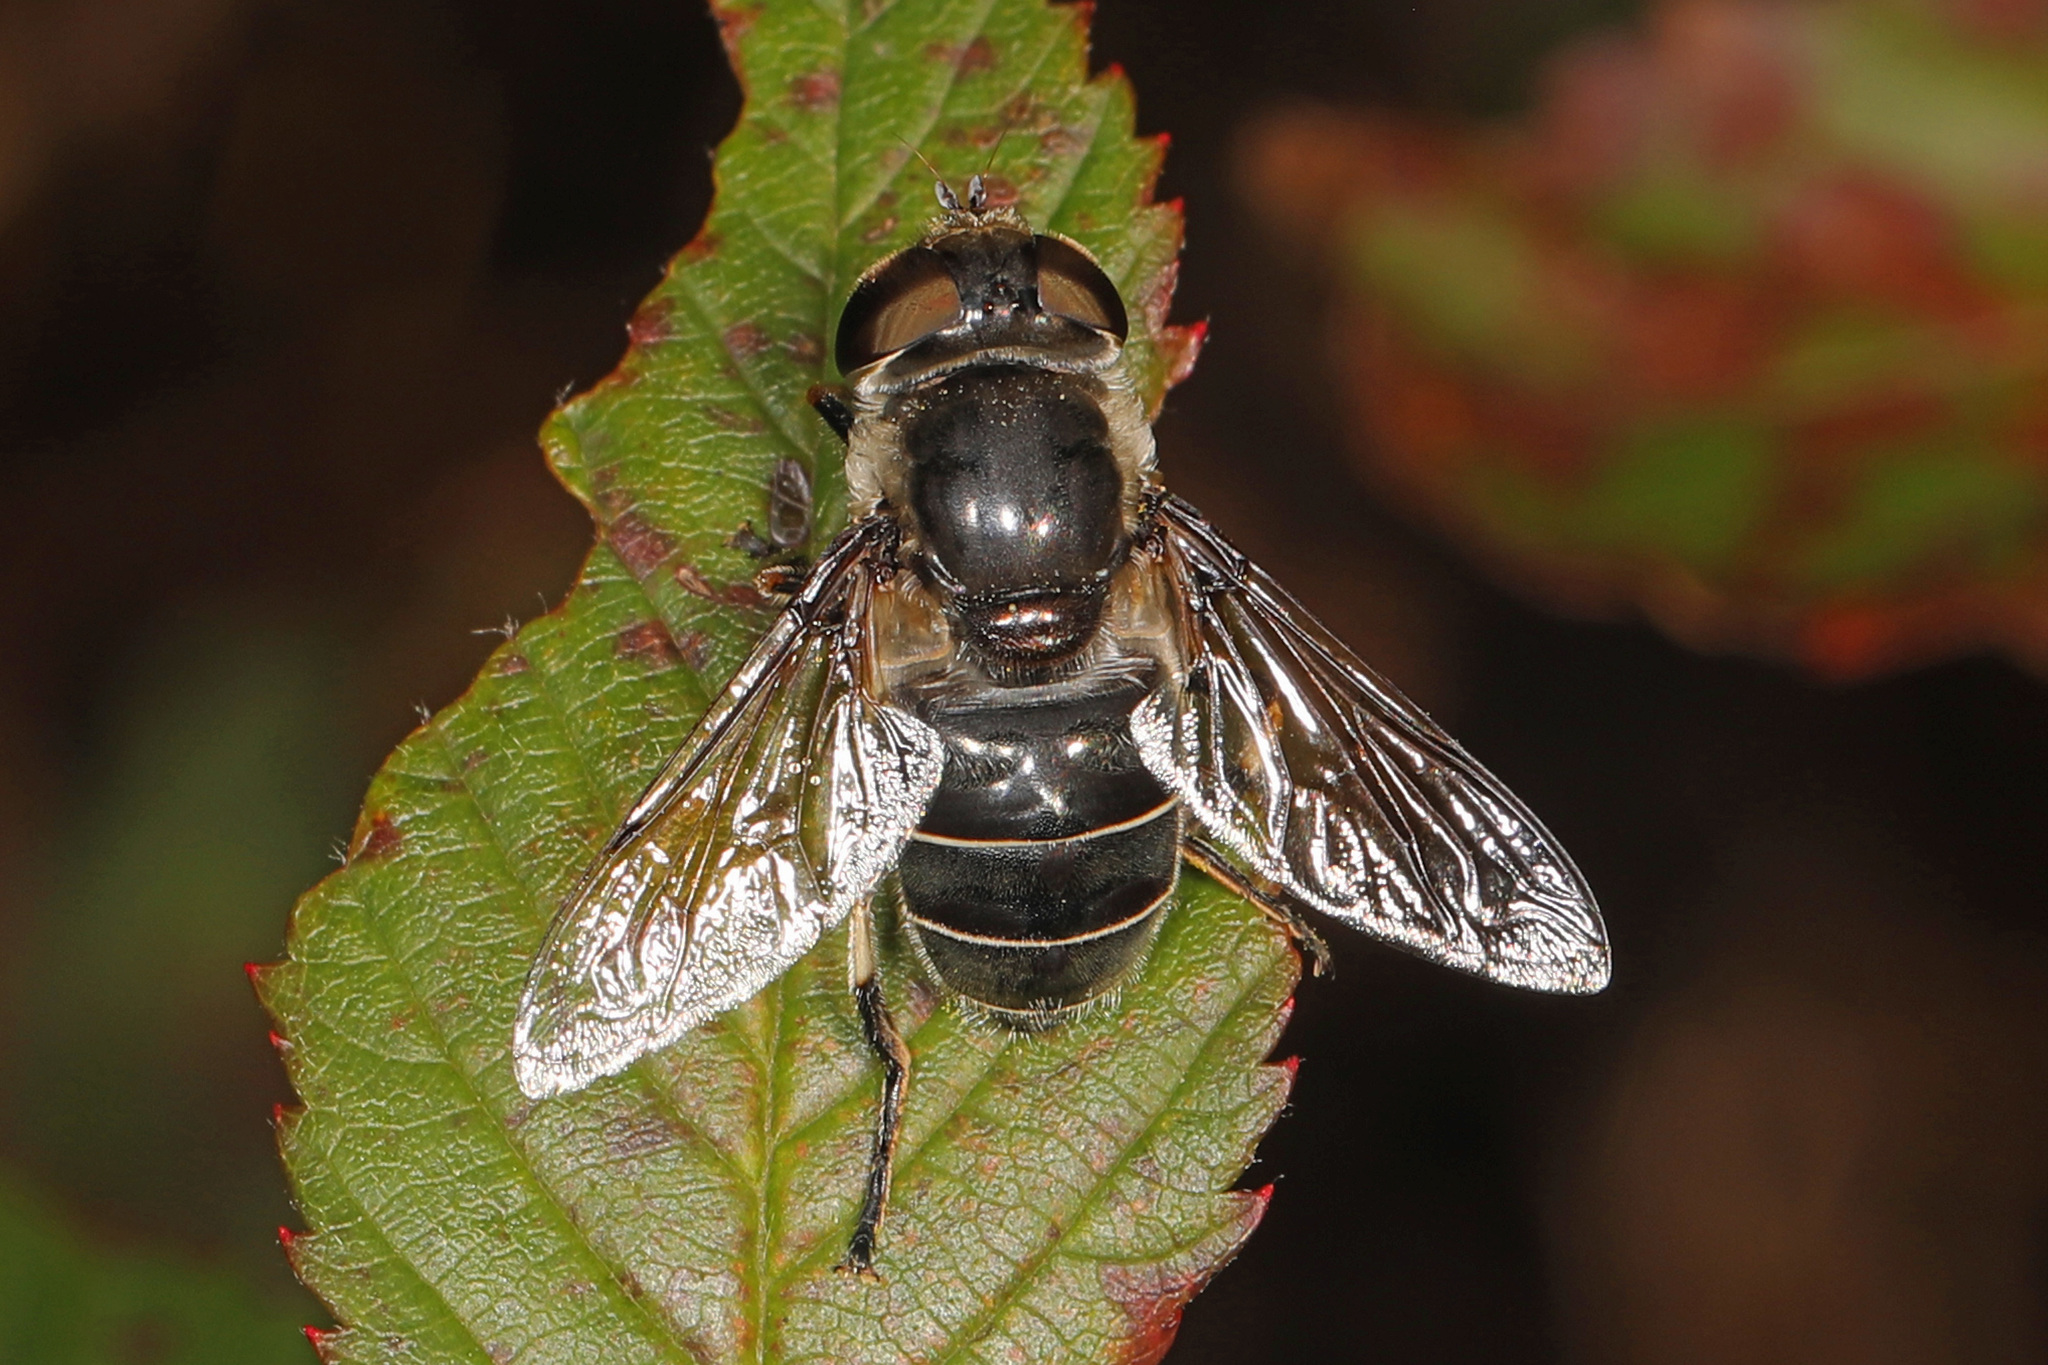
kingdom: Animalia
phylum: Arthropoda
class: Insecta
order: Diptera
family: Syrphidae
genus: Eristalis
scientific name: Eristalis dimidiata
